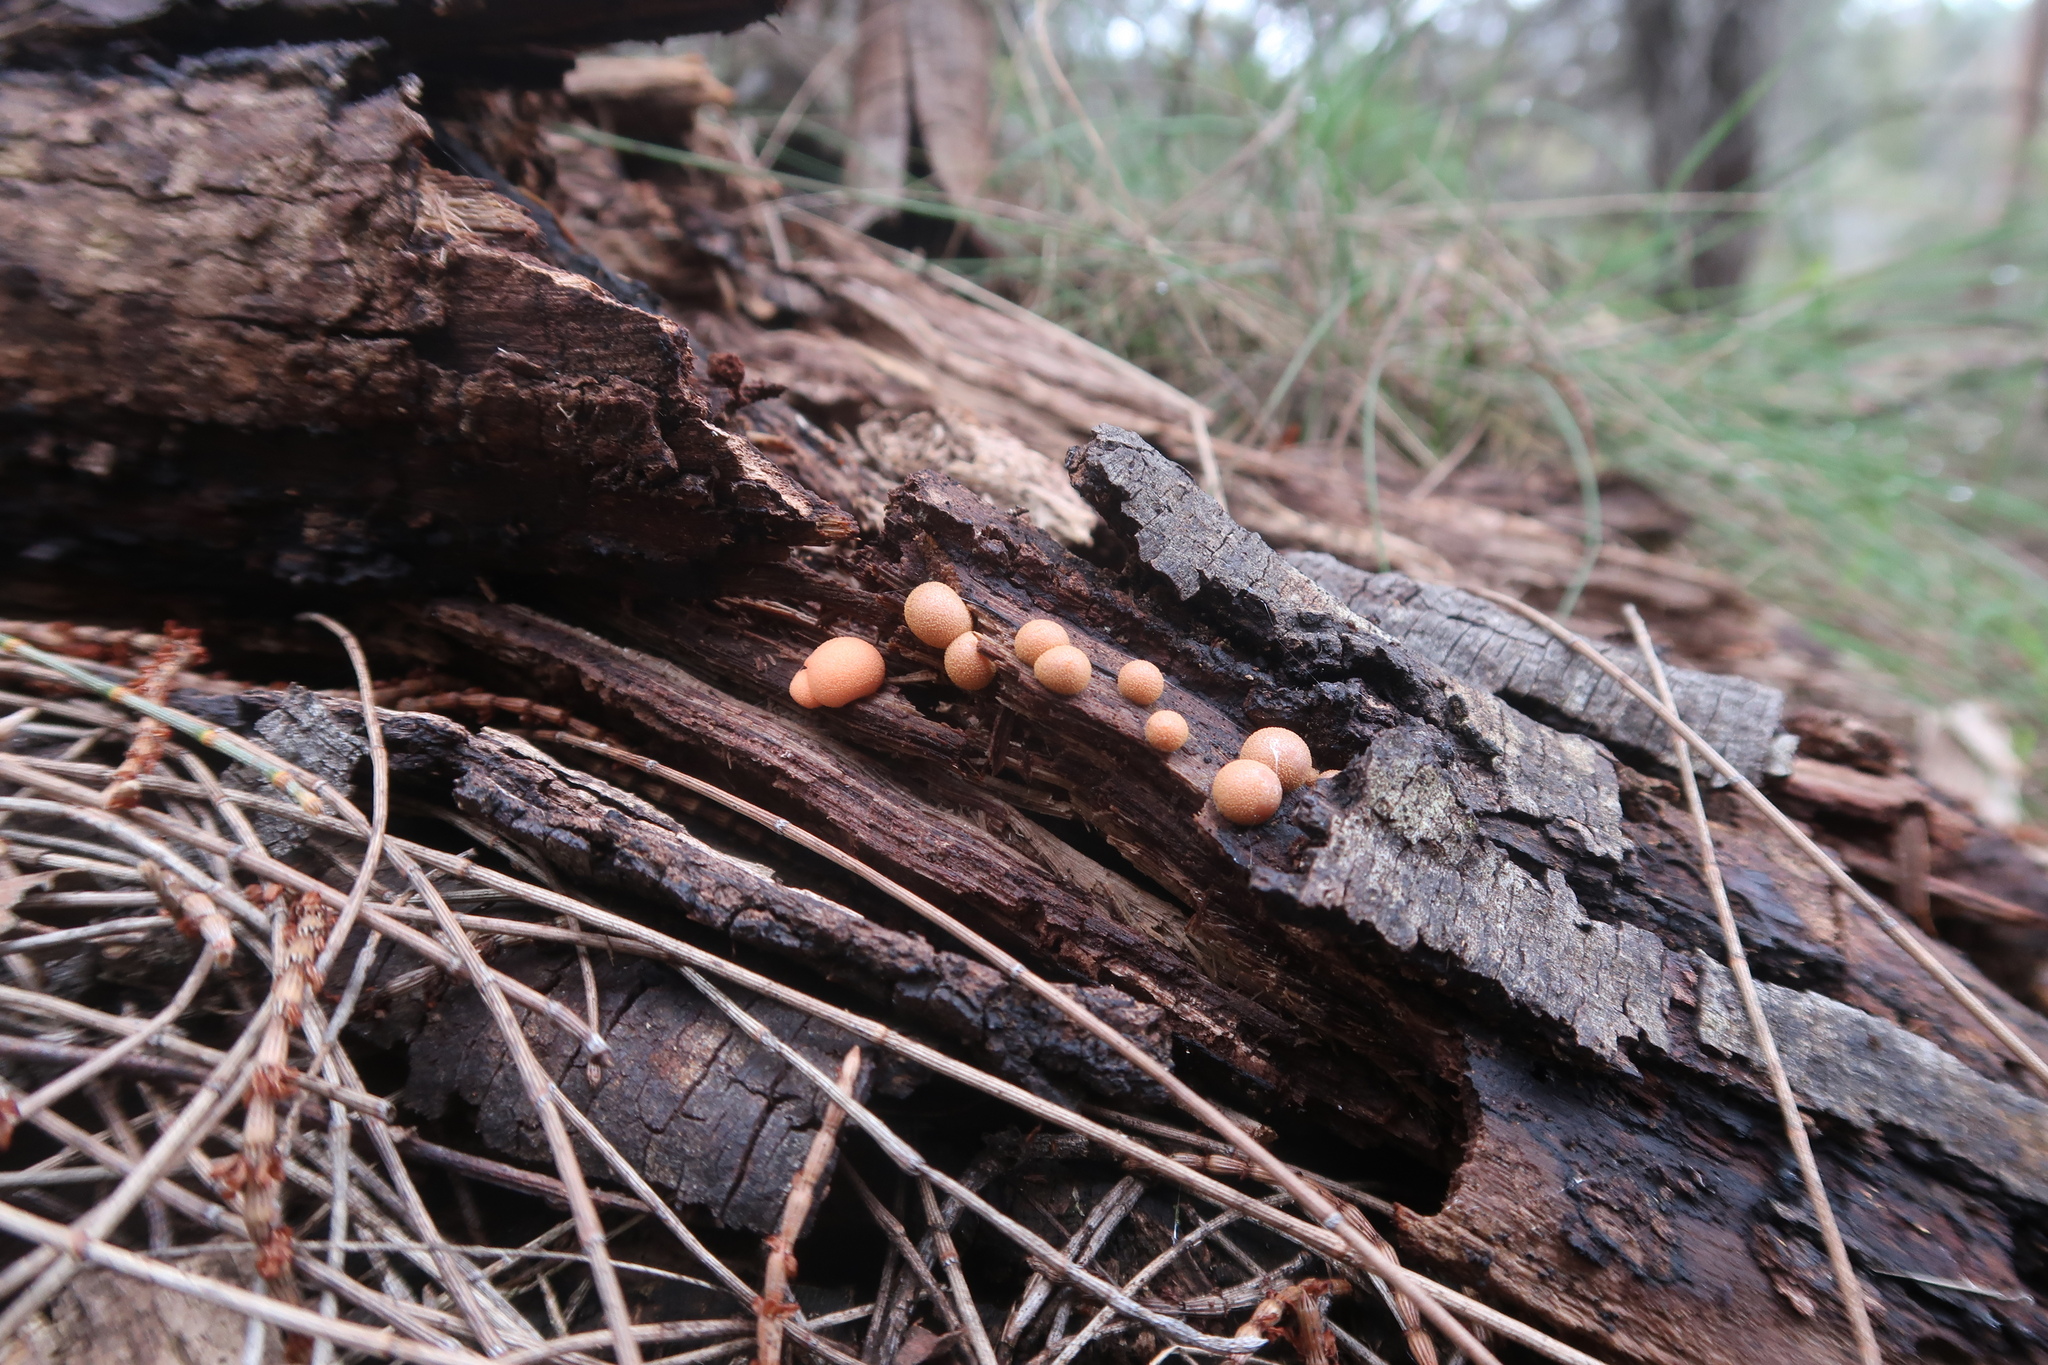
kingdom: Protozoa
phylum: Mycetozoa
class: Myxomycetes
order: Cribrariales
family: Tubiferaceae
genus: Lycogala
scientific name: Lycogala epidendrum
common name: Wolf's milk
